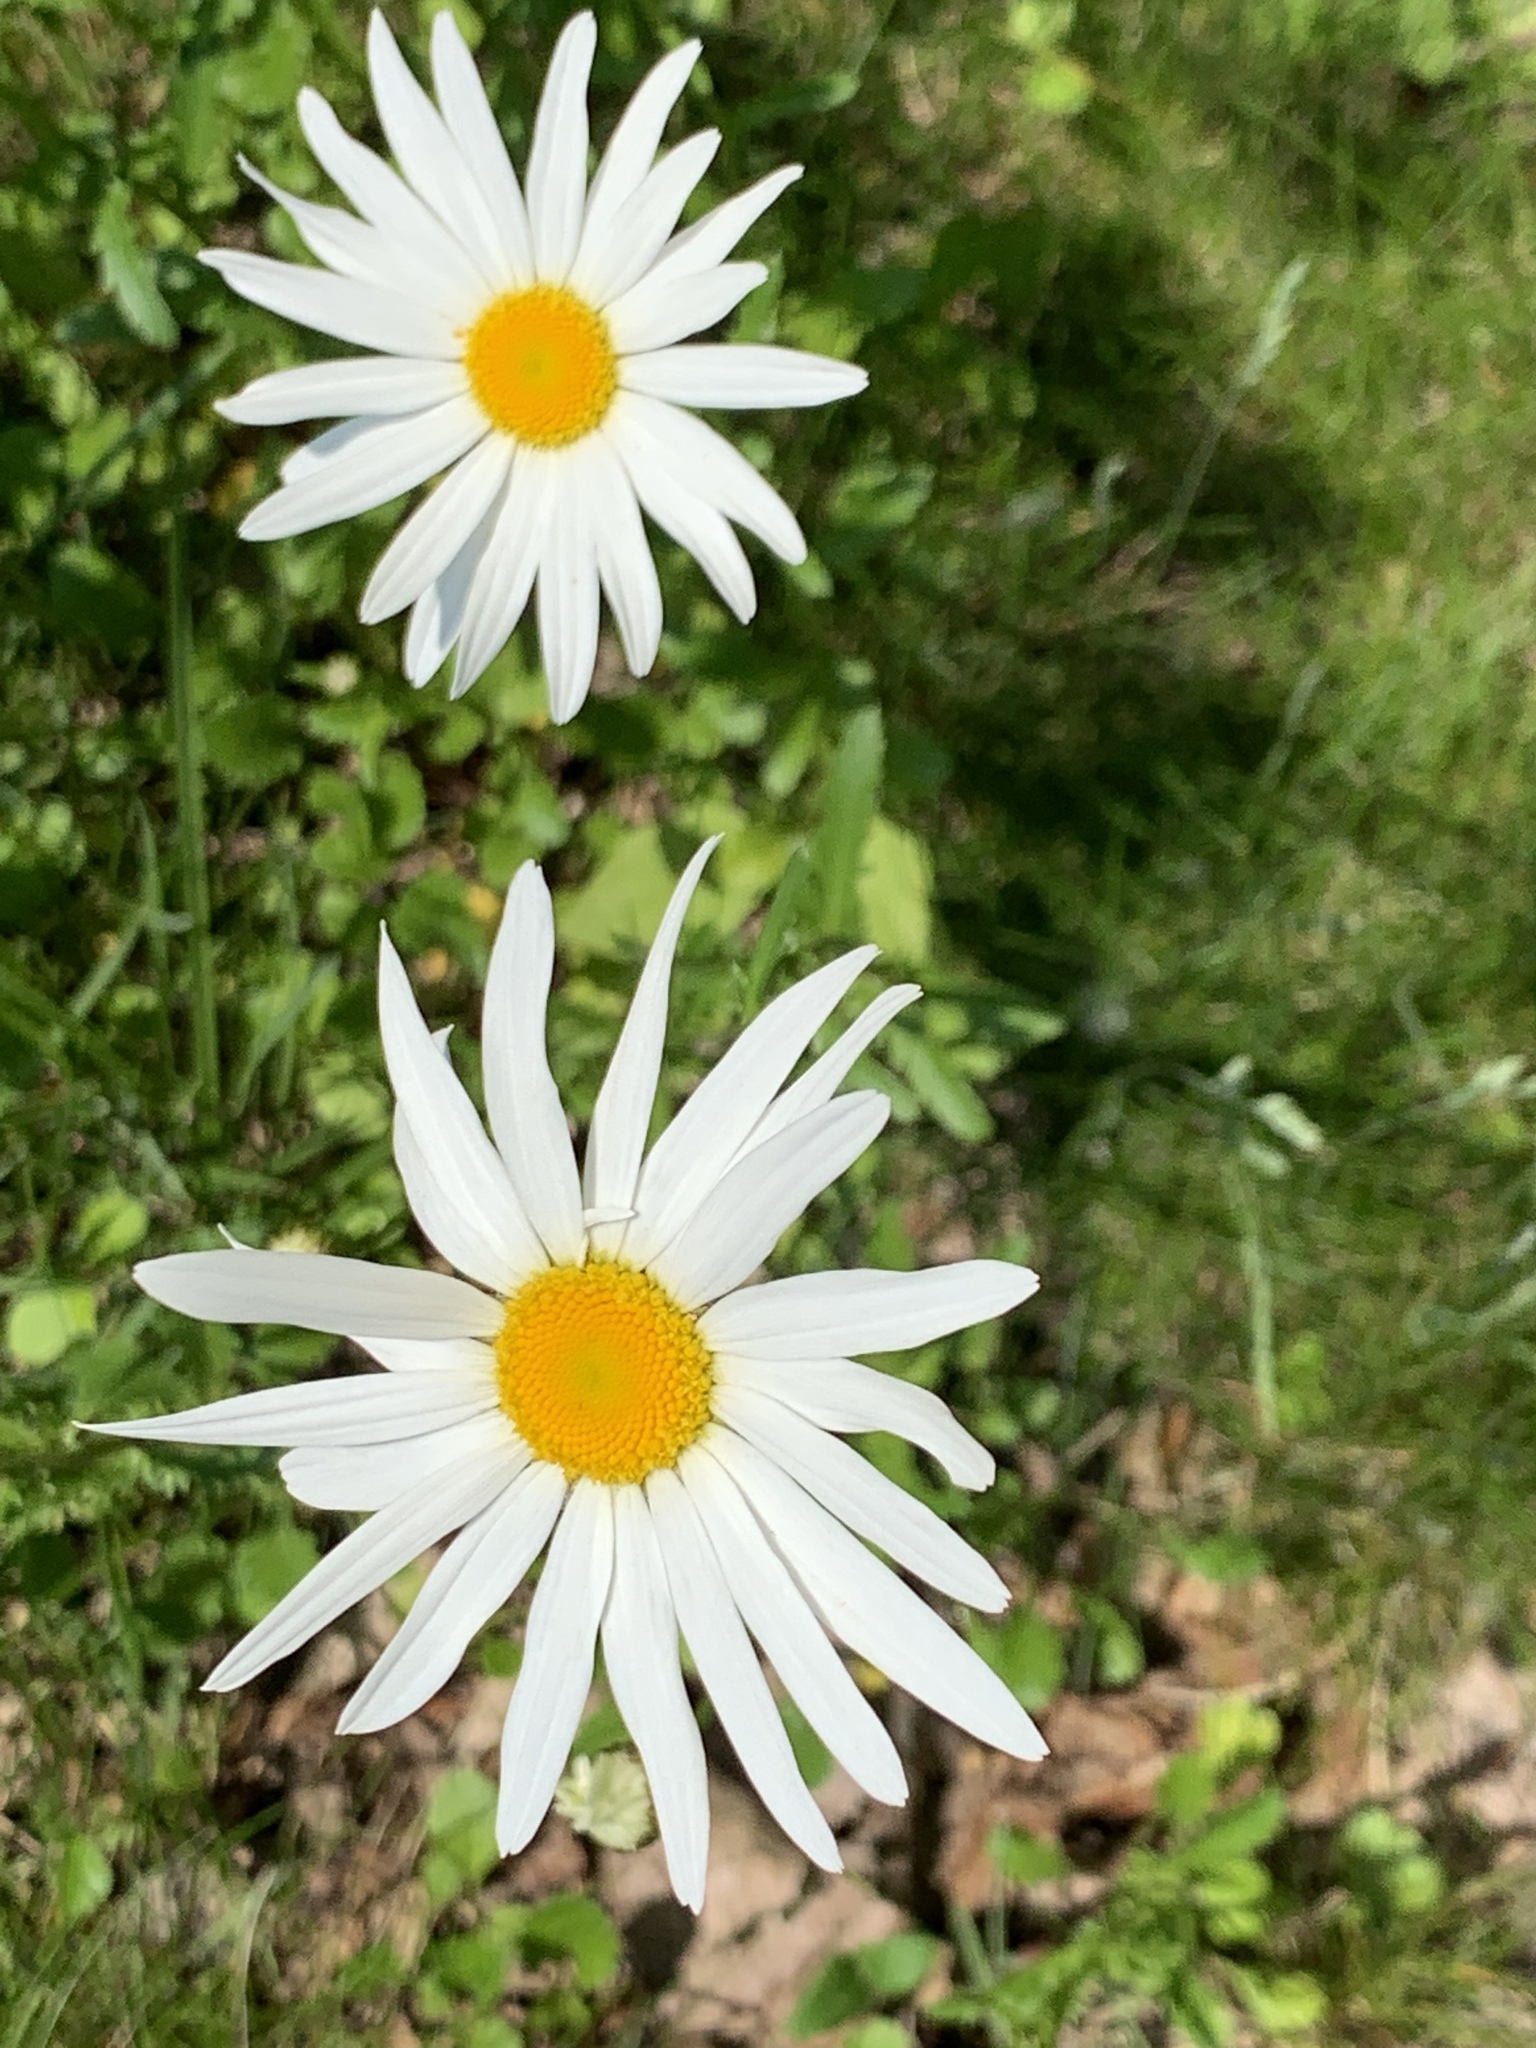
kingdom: Plantae
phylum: Tracheophyta
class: Magnoliopsida
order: Asterales
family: Asteraceae
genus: Leucanthemum
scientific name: Leucanthemum vulgare
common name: Oxeye daisy
